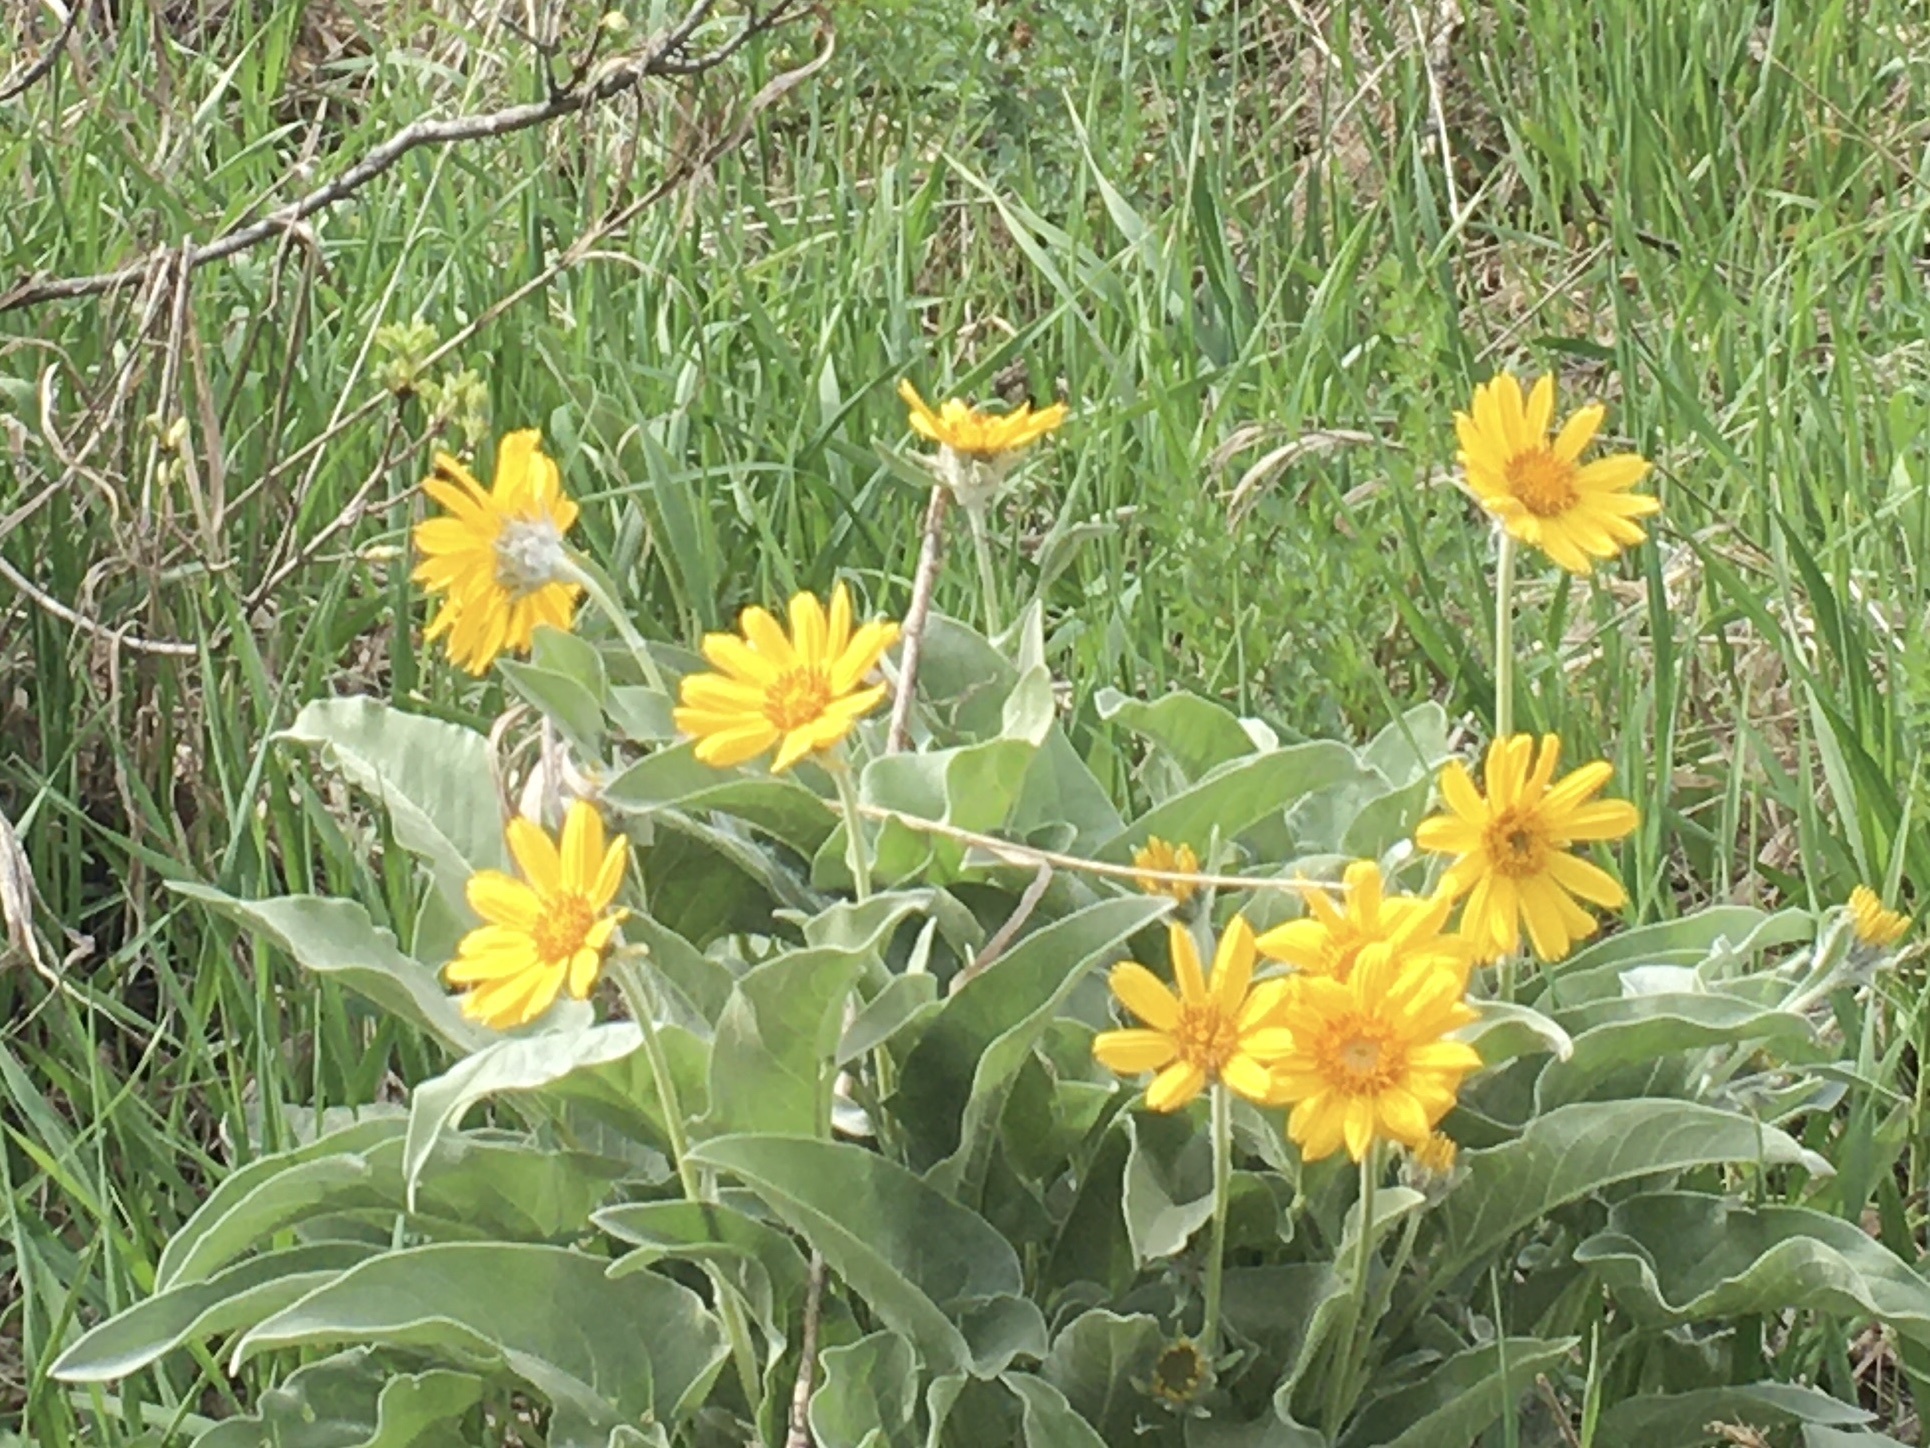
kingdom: Plantae
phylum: Tracheophyta
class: Magnoliopsida
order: Asterales
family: Asteraceae
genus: Wyethia
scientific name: Wyethia sagittata
